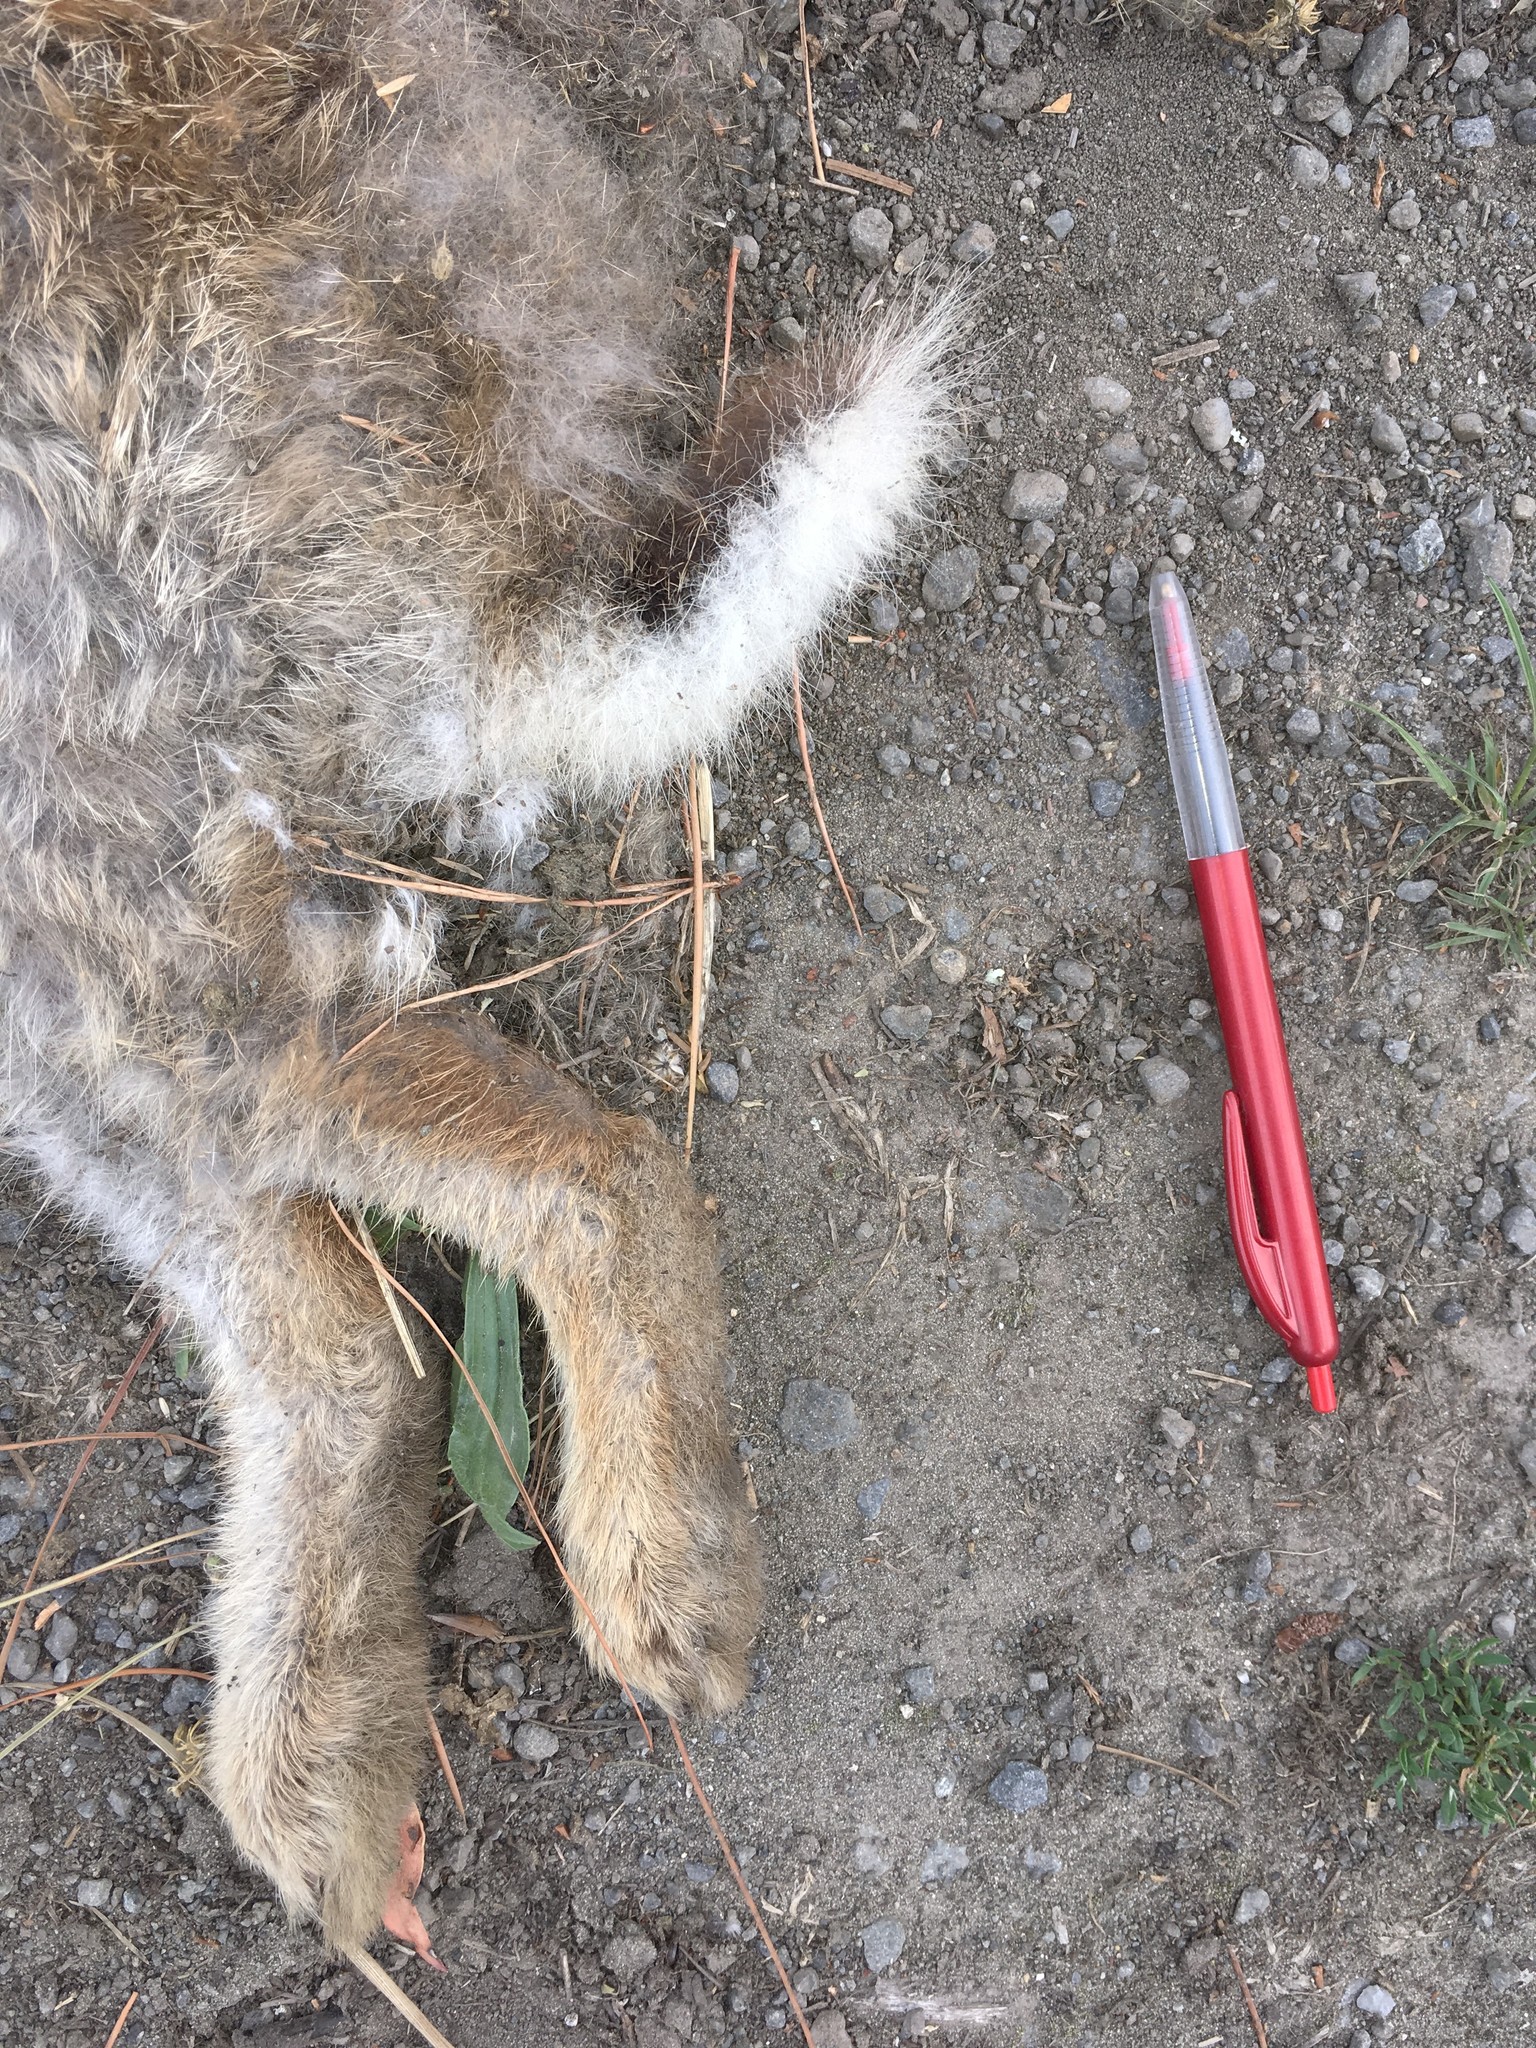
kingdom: Animalia
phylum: Chordata
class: Mammalia
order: Lagomorpha
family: Leporidae
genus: Oryctolagus
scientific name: Oryctolagus cuniculus
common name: European rabbit
